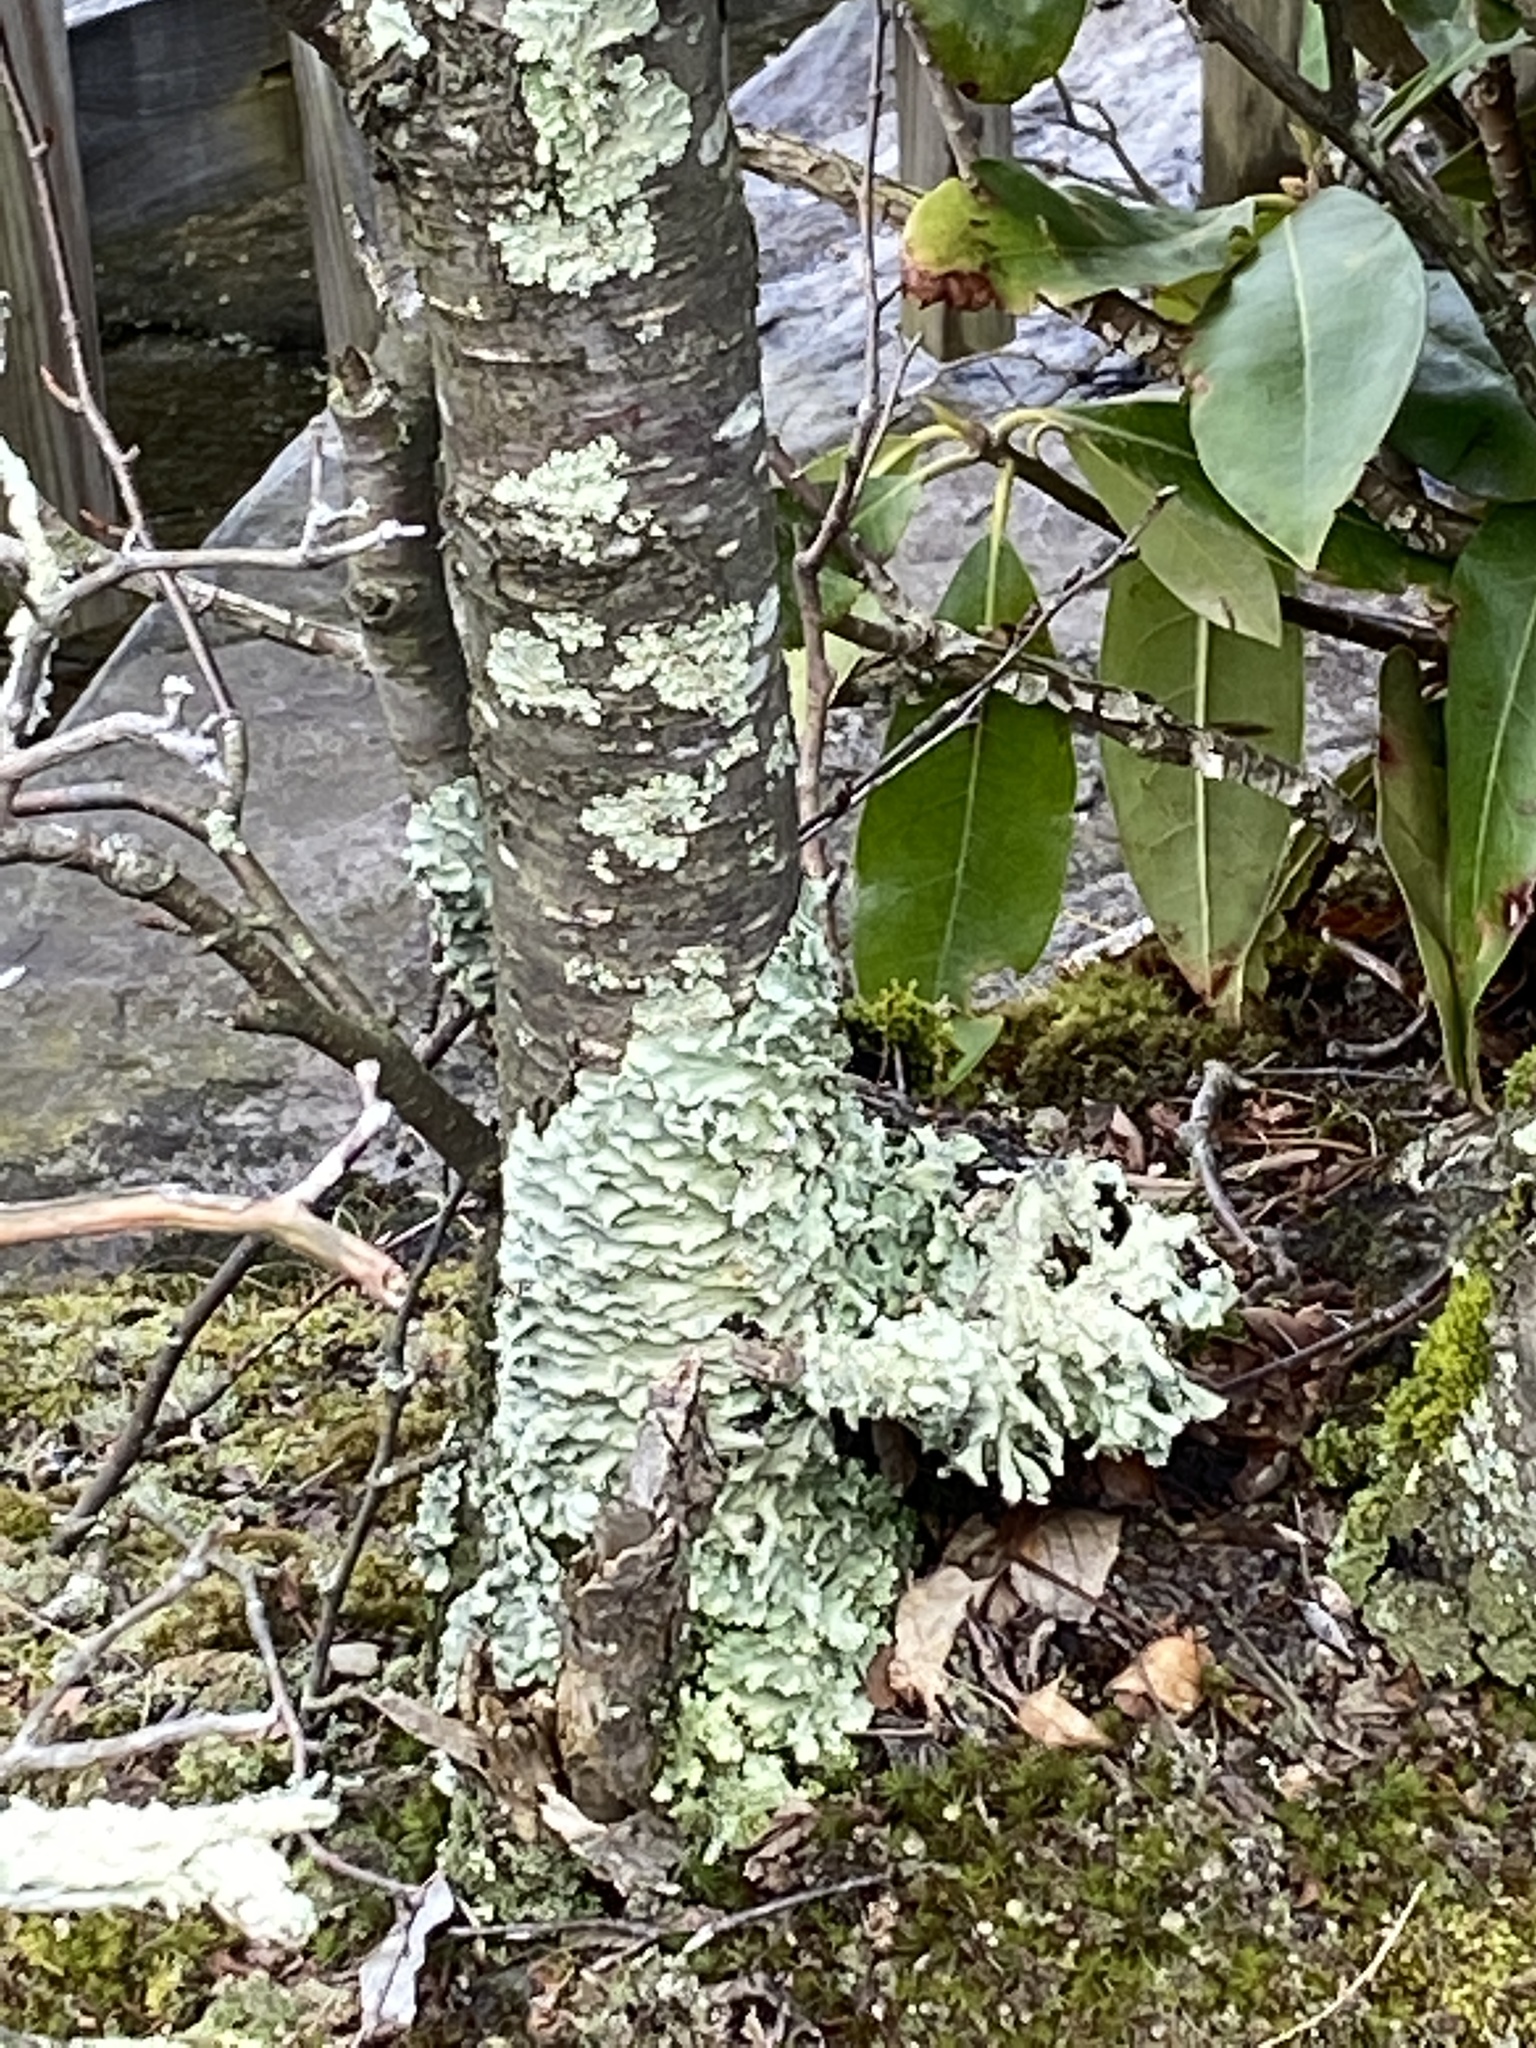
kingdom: Fungi
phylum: Ascomycota
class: Lecanoromycetes
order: Lecanorales
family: Parmeliaceae
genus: Flavoparmelia
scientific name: Flavoparmelia caperata
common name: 40-mile per hour lichen
